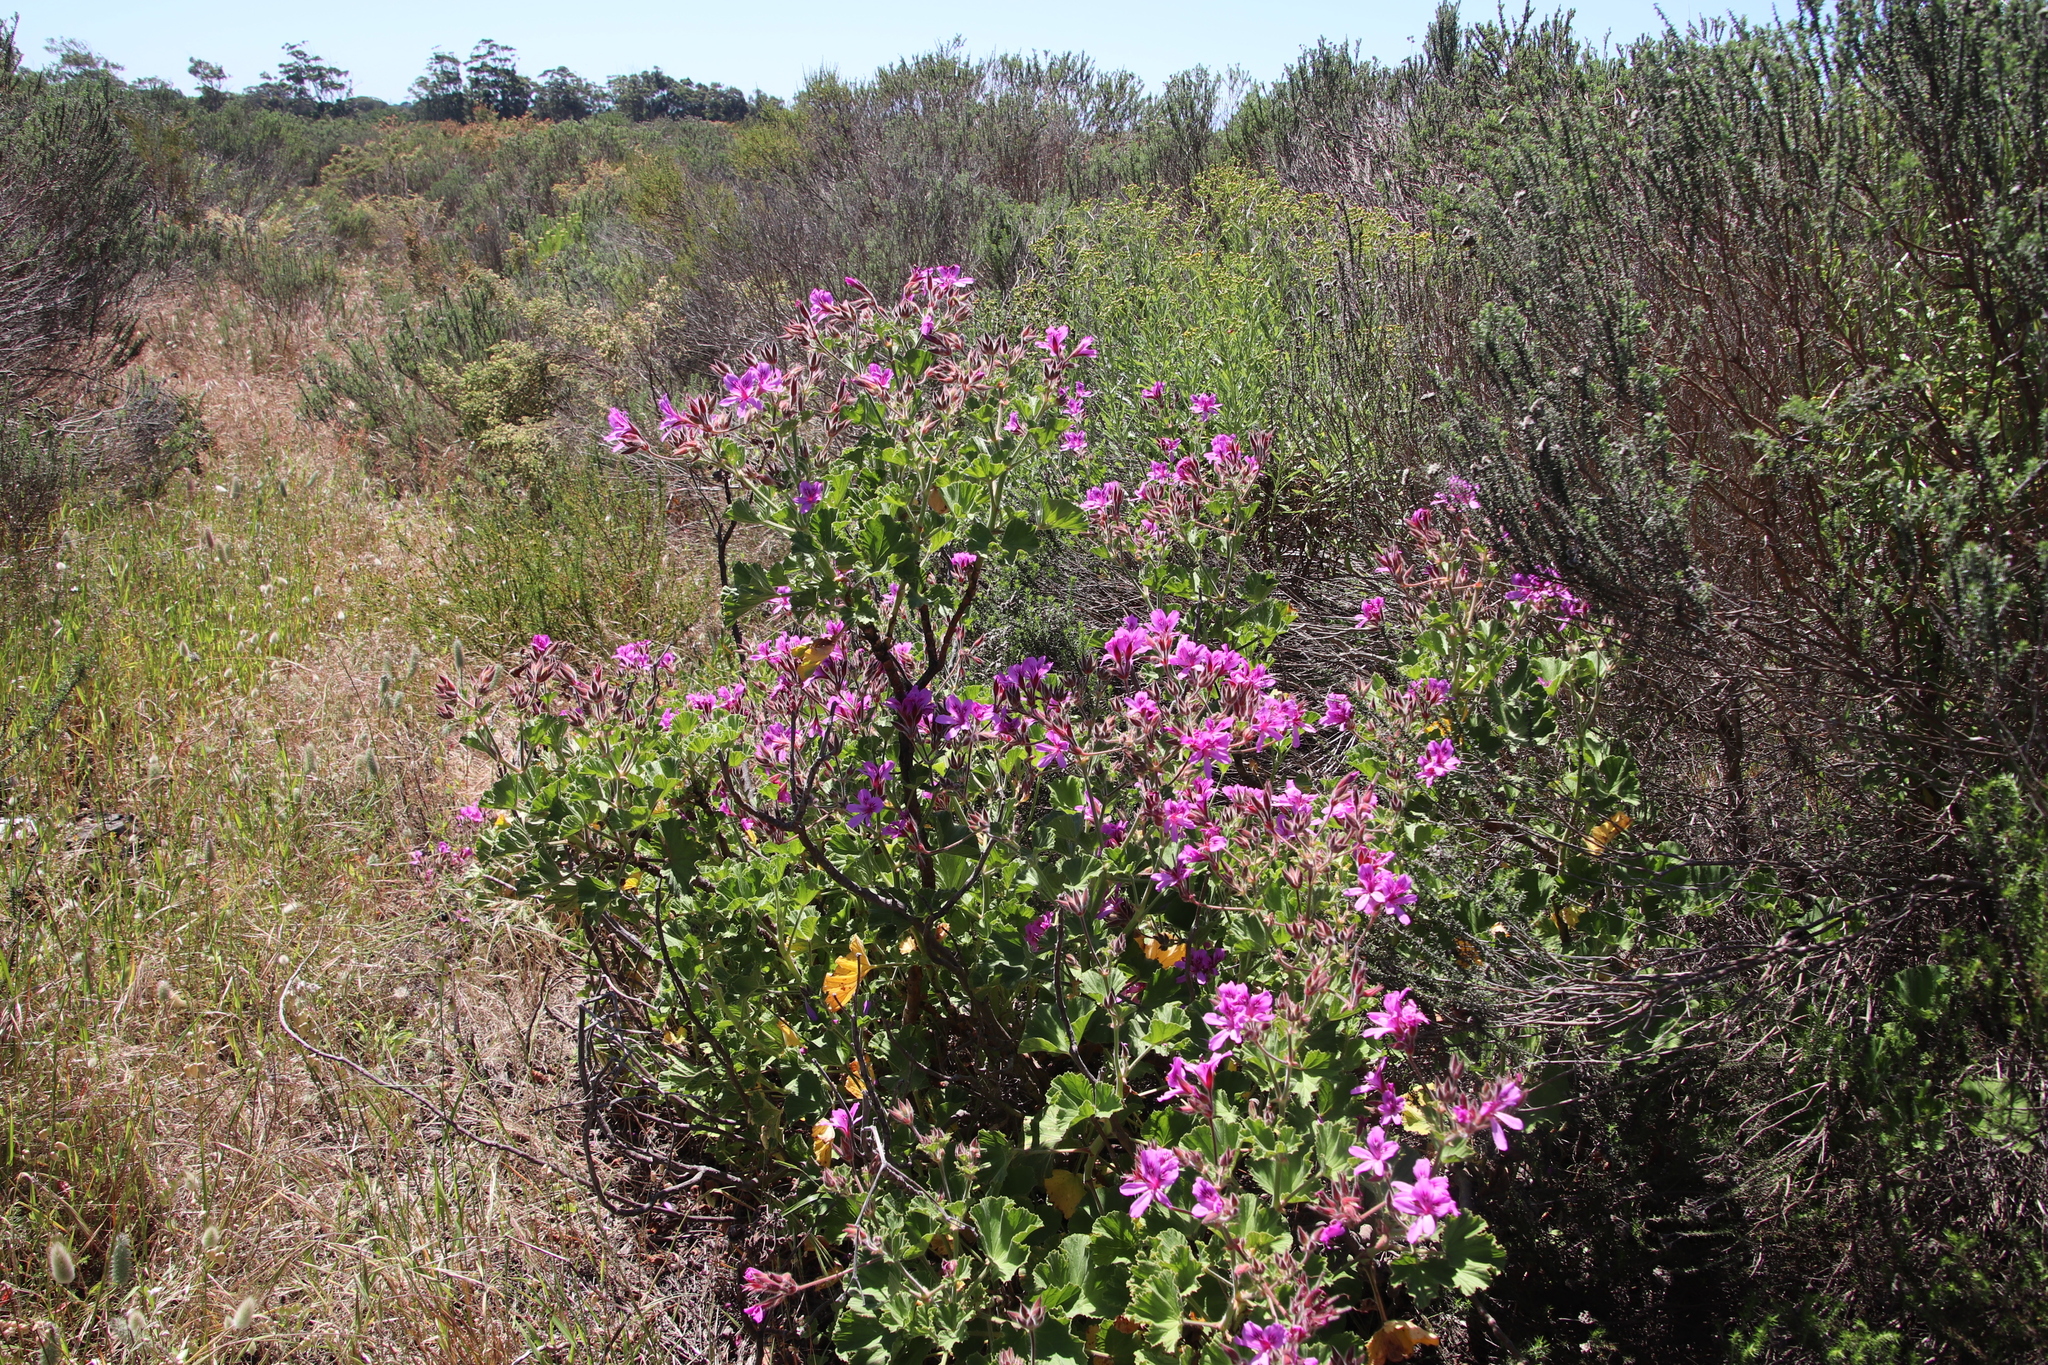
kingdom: Plantae
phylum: Tracheophyta
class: Magnoliopsida
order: Geraniales
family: Geraniaceae
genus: Pelargonium
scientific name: Pelargonium cucullatum
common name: Tree pelargonium
